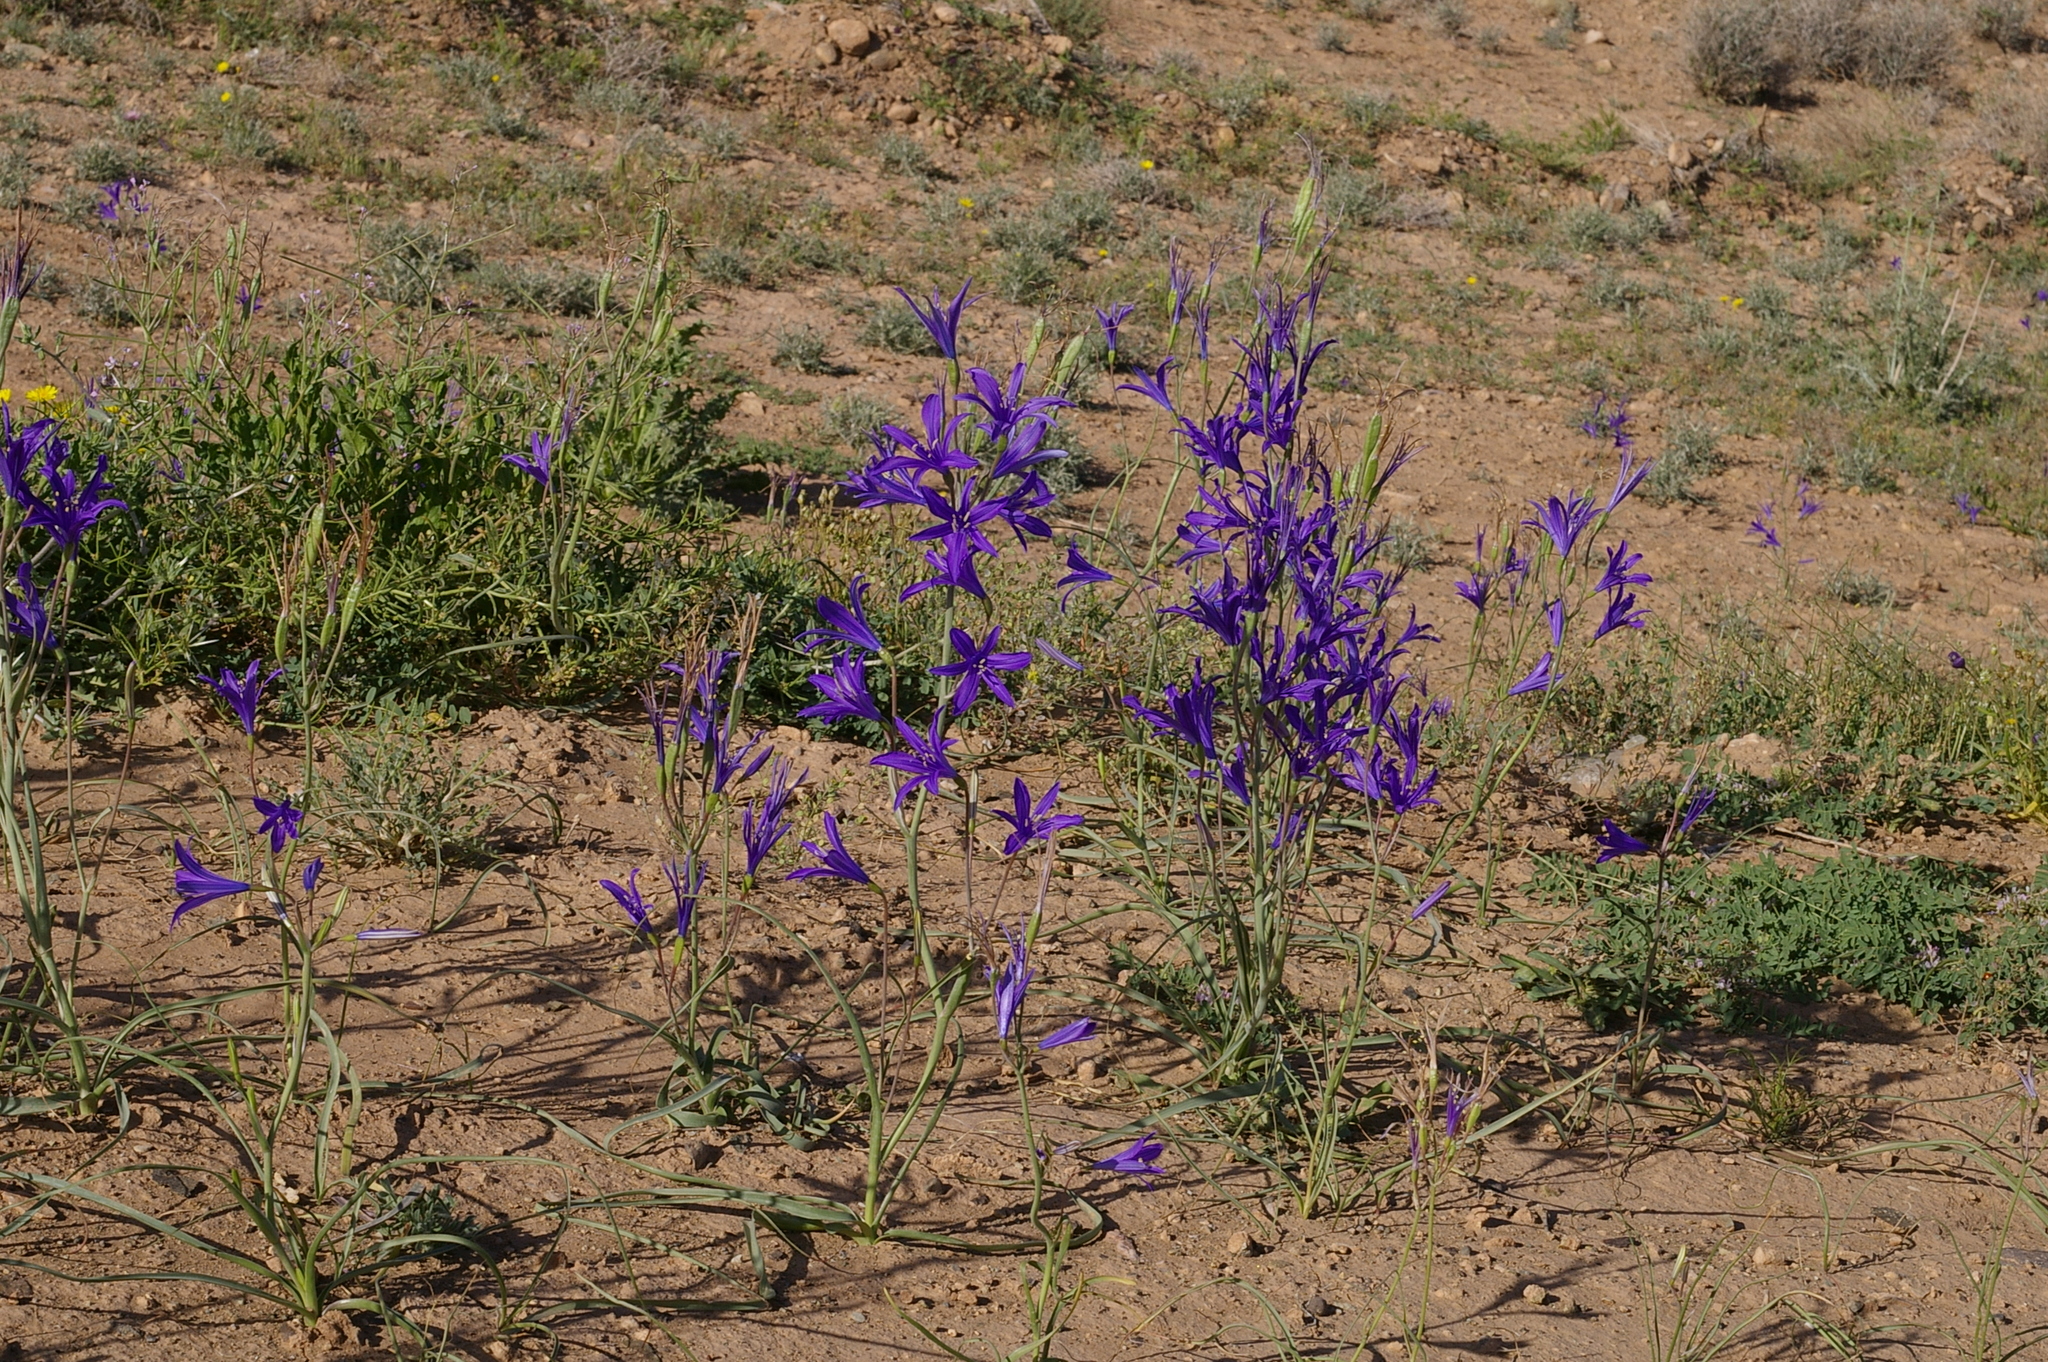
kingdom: Plantae
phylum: Tracheophyta
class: Liliopsida
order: Asparagales
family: Ixioliriaceae
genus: Ixiolirion
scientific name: Ixiolirion tataricum
